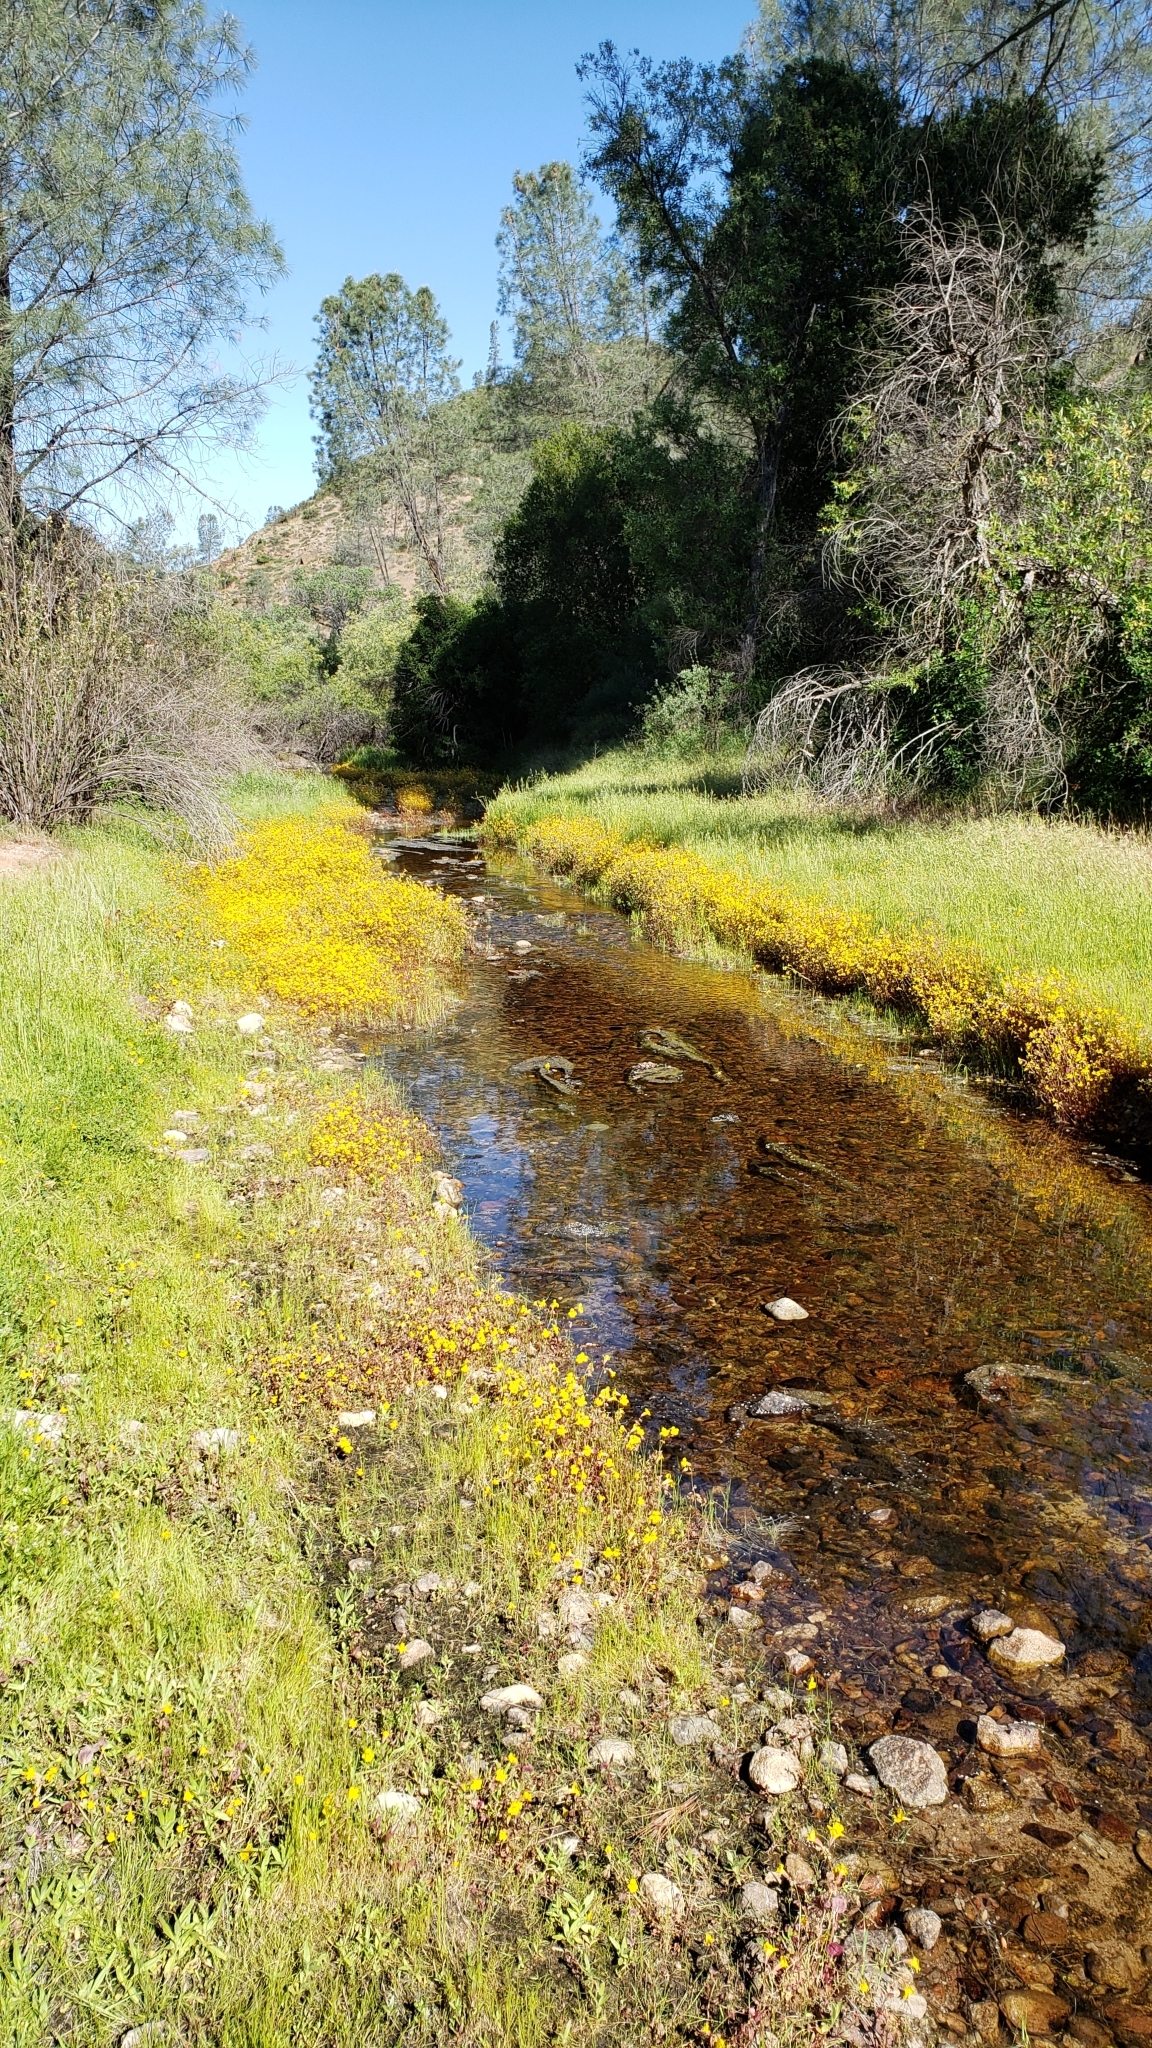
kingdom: Plantae
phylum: Tracheophyta
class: Magnoliopsida
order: Lamiales
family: Phrymaceae
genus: Erythranthe
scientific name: Erythranthe guttata
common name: Monkeyflower
